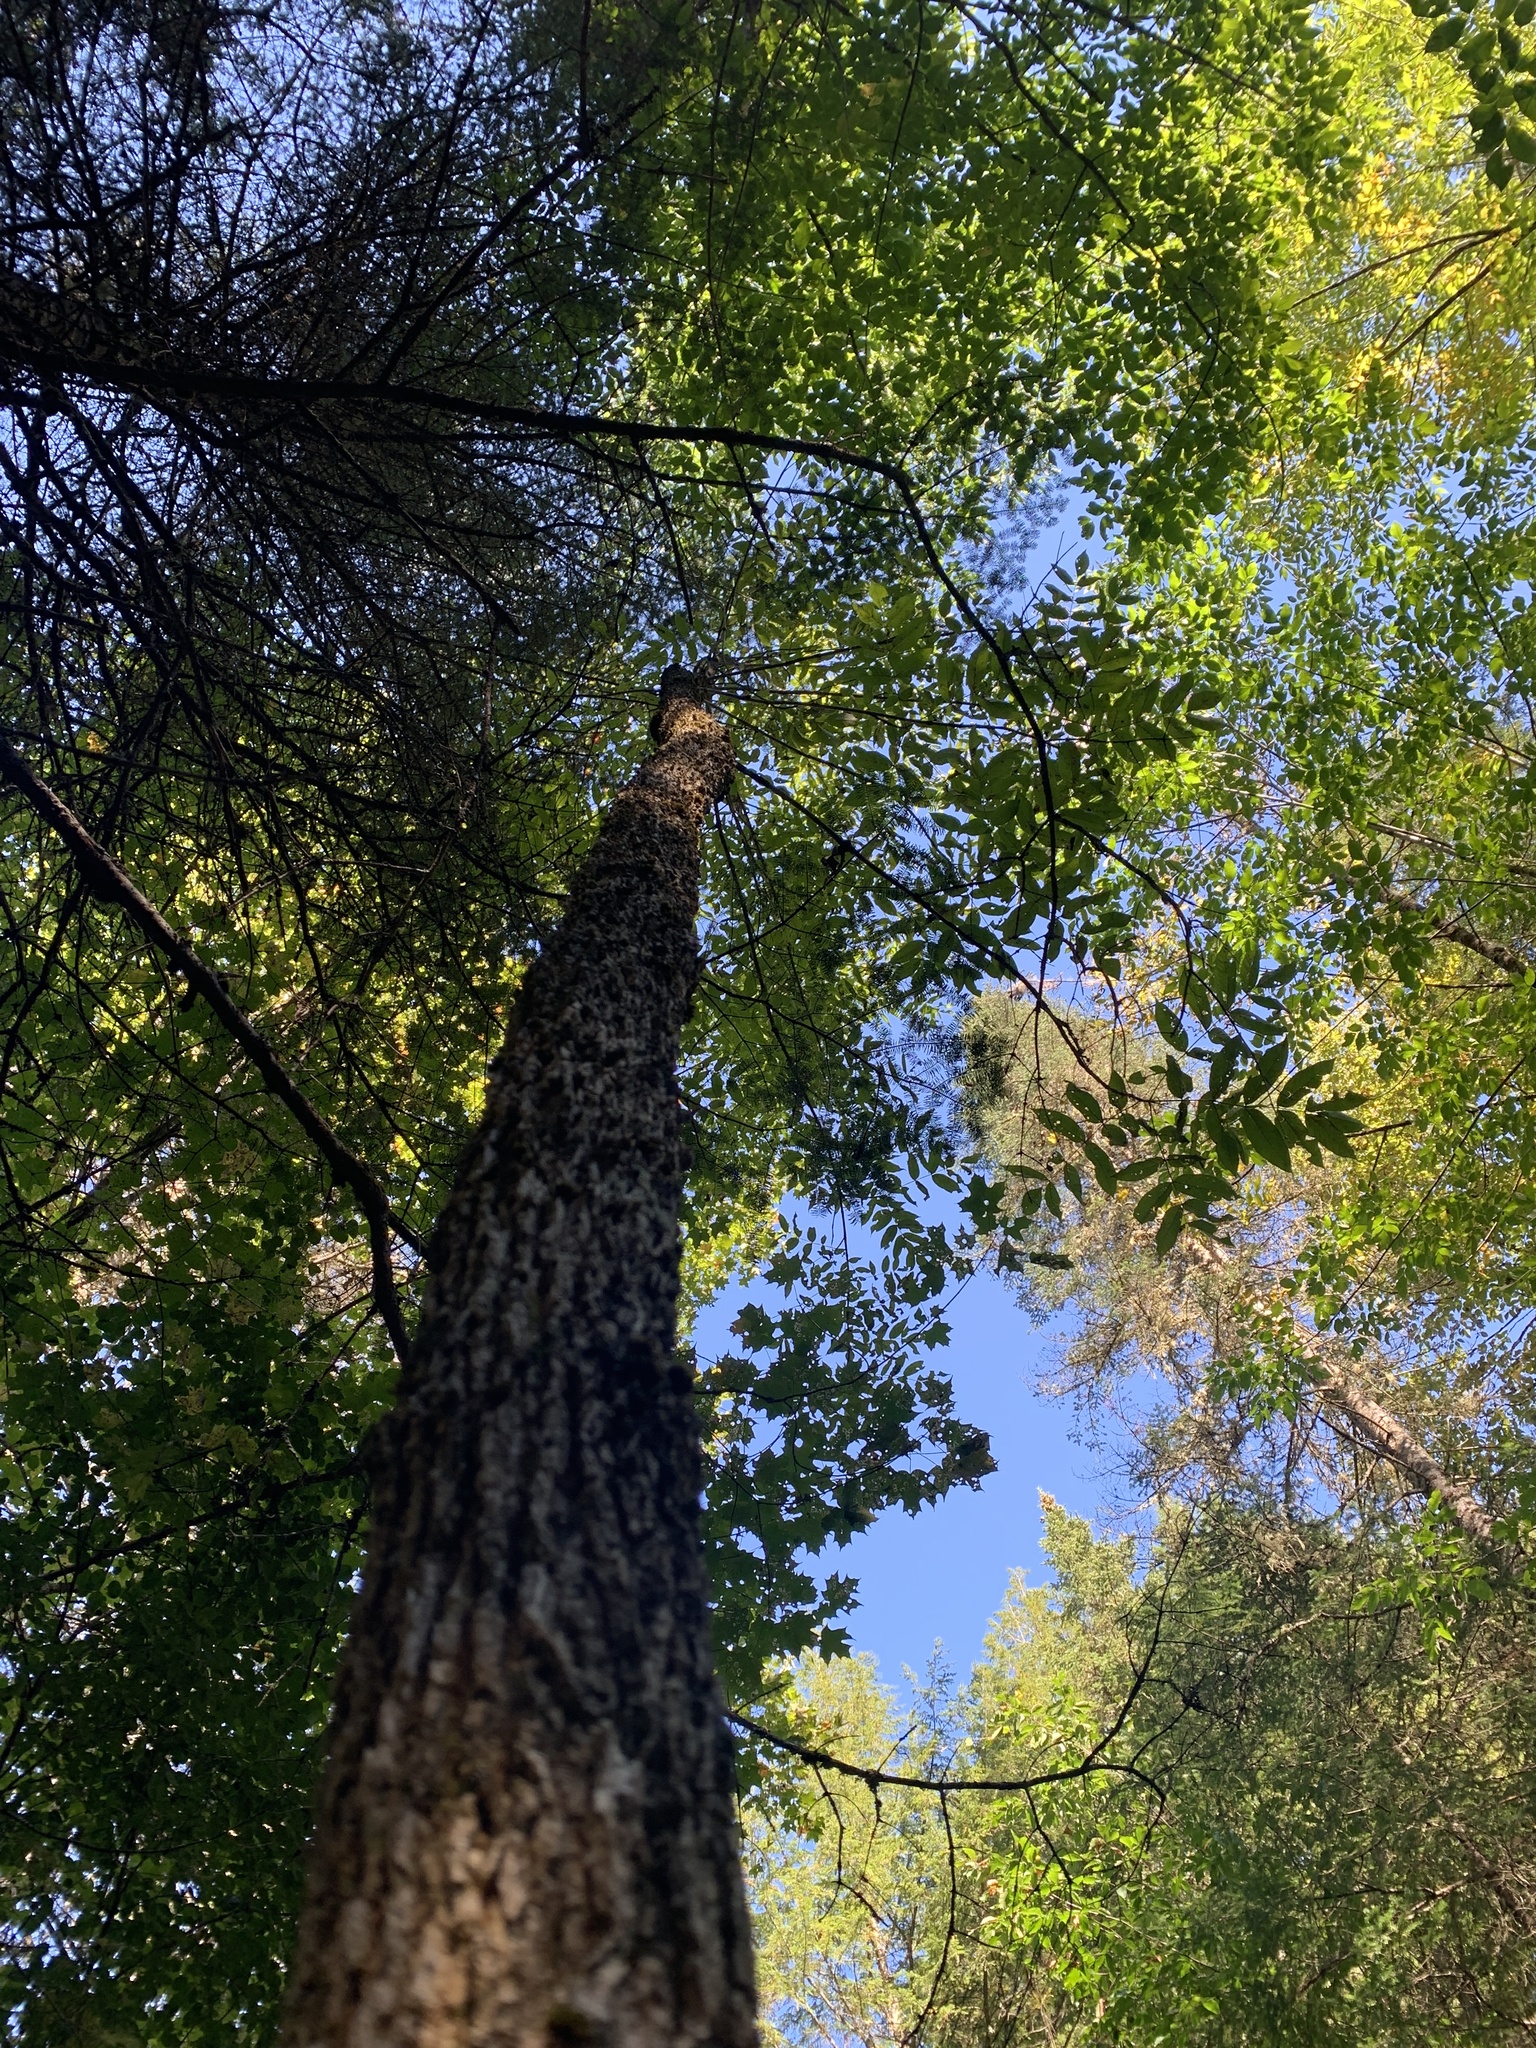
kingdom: Plantae
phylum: Tracheophyta
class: Magnoliopsida
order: Lamiales
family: Oleaceae
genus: Fraxinus
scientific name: Fraxinus nigra
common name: Black ash
